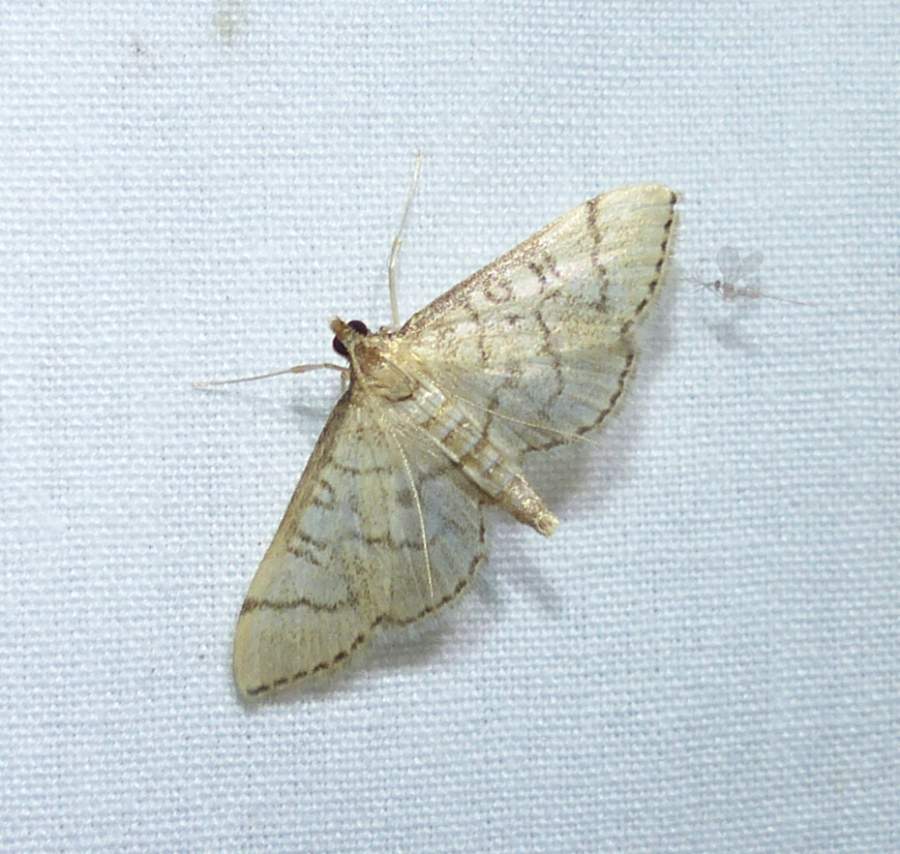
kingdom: Animalia
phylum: Arthropoda
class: Insecta
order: Lepidoptera
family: Crambidae
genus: Lamprosema
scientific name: Lamprosema Blepharomastix ranalis
